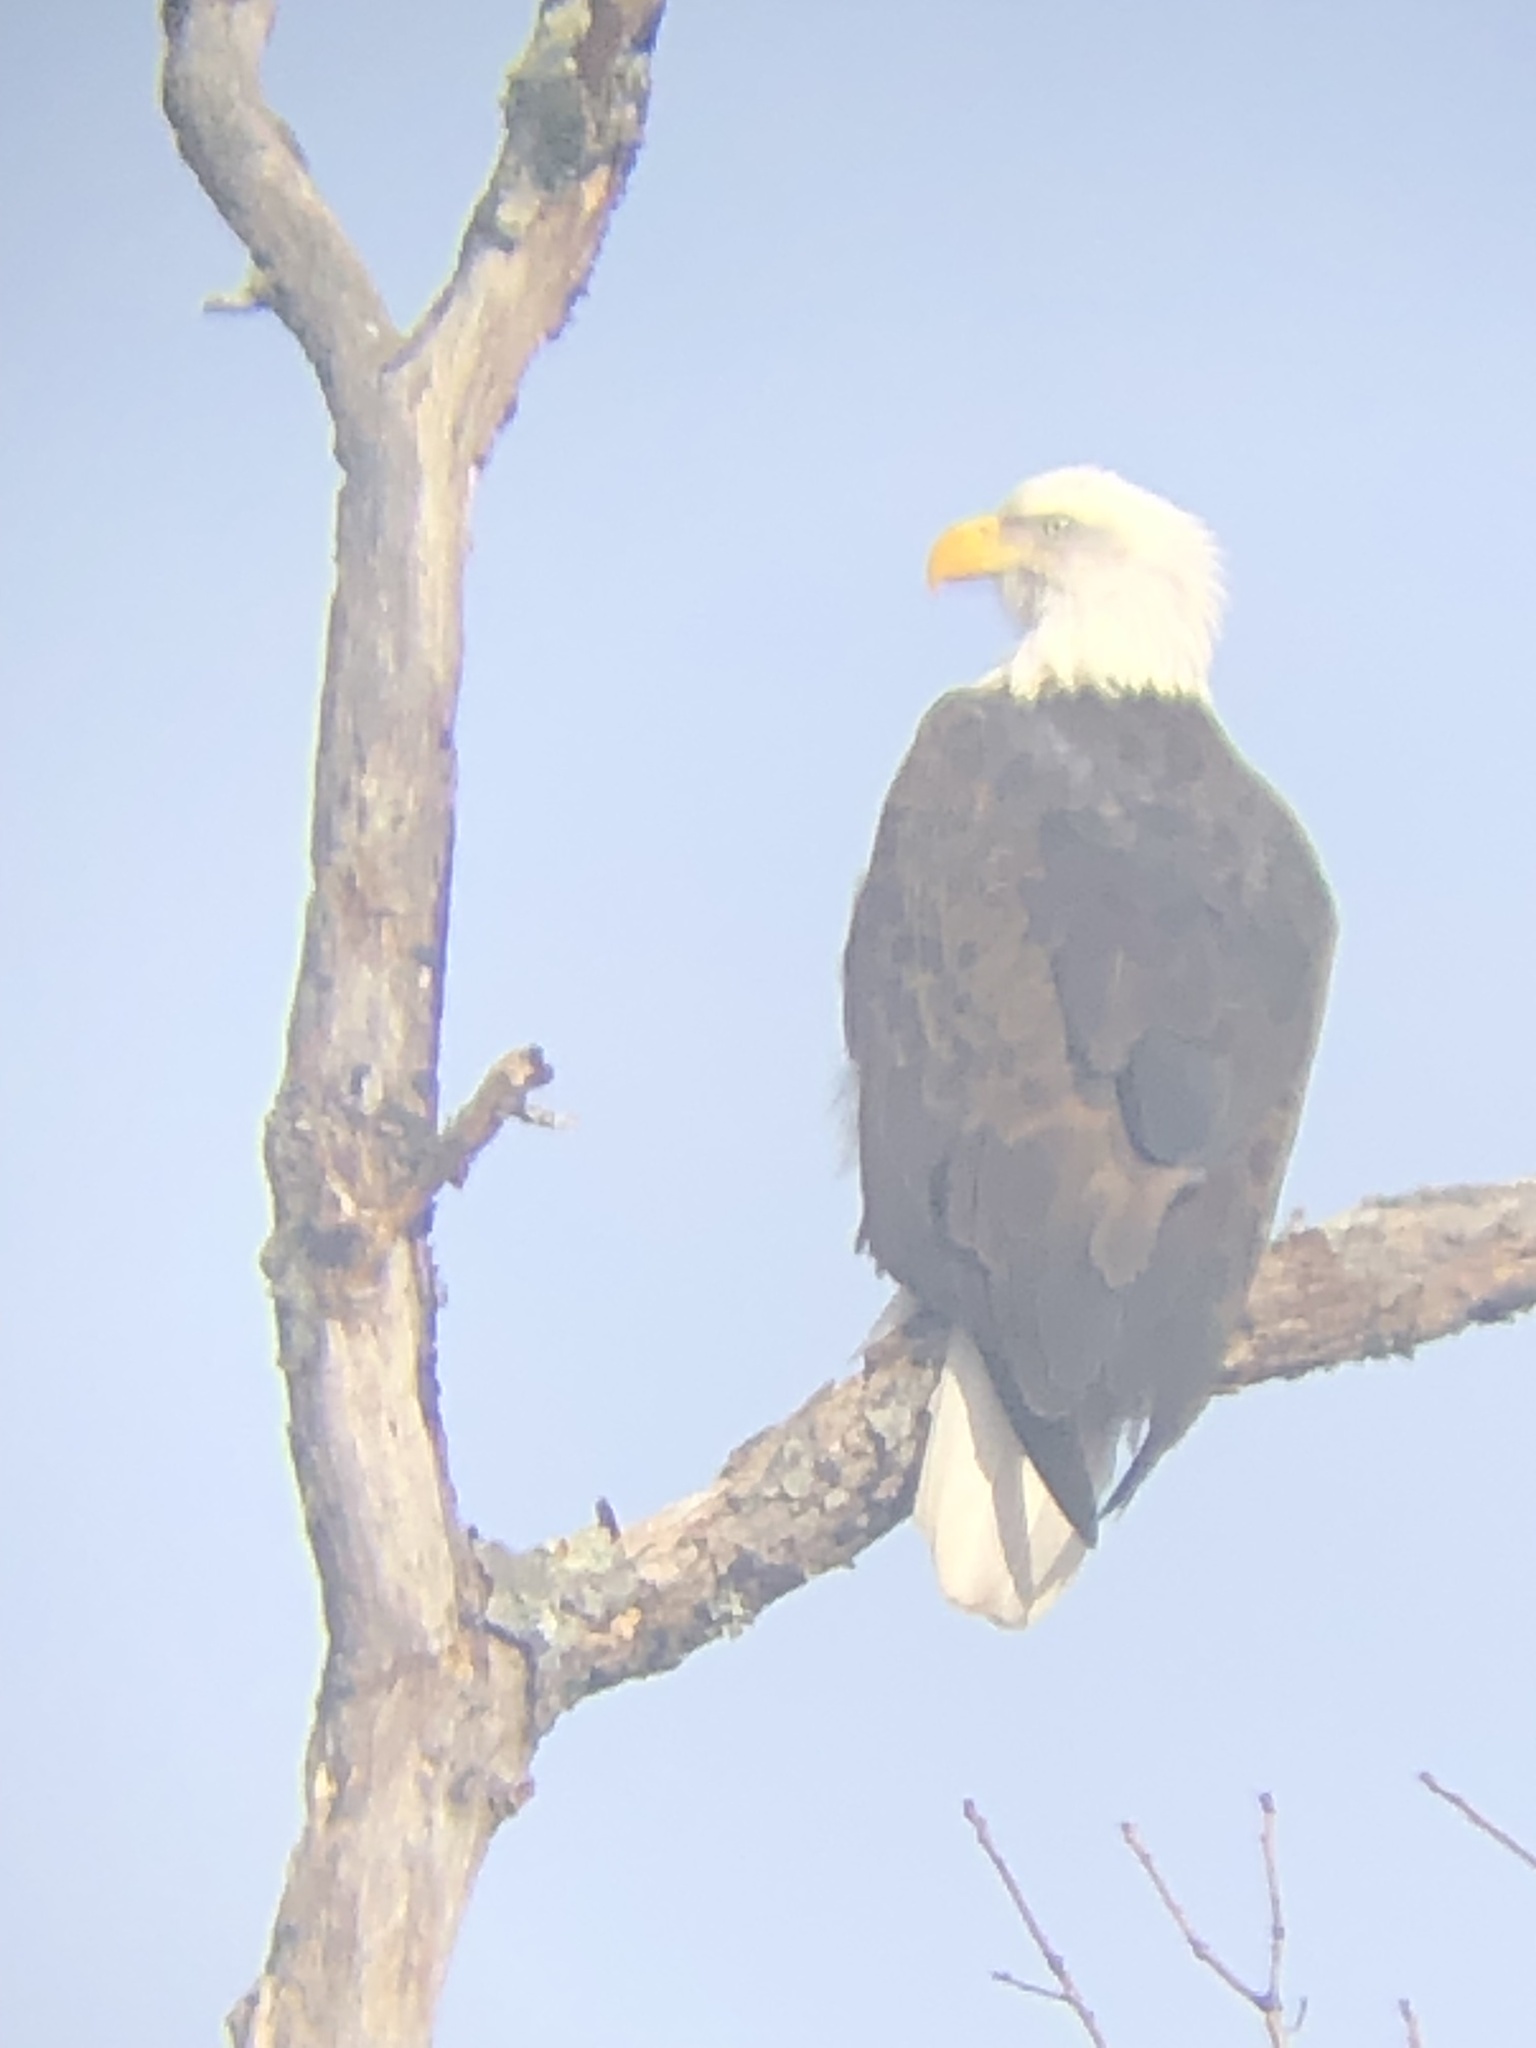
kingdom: Animalia
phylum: Chordata
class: Aves
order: Accipitriformes
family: Accipitridae
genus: Haliaeetus
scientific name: Haliaeetus leucocephalus
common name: Bald eagle
